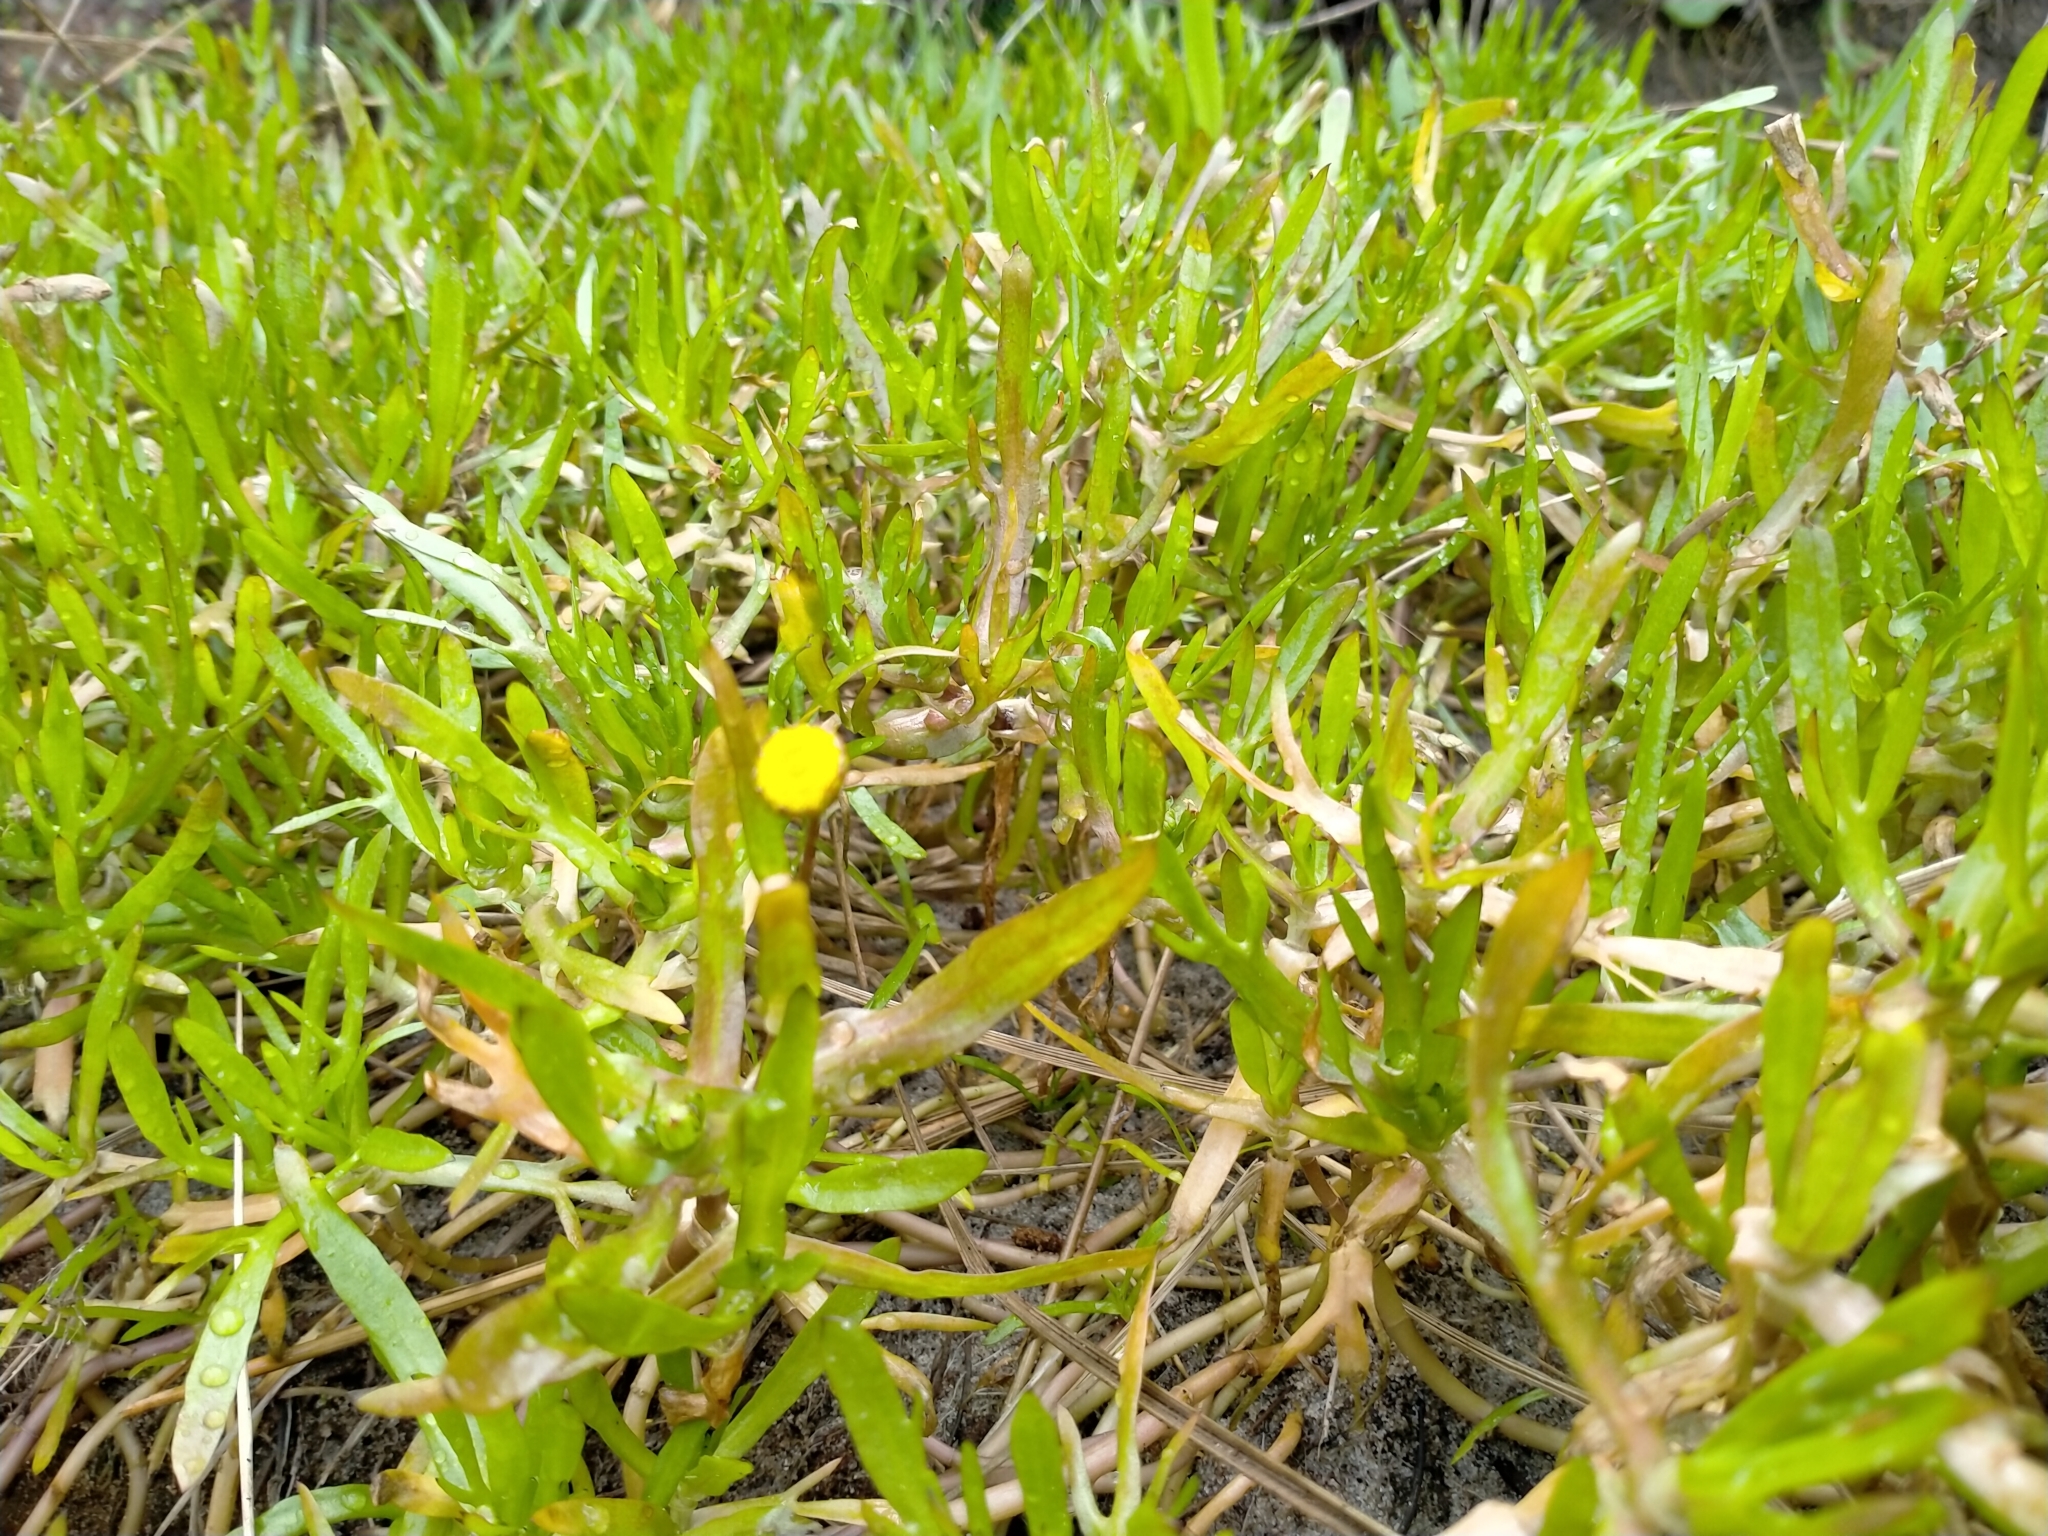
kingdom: Plantae
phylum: Tracheophyta
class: Magnoliopsida
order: Asterales
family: Asteraceae
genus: Cotula
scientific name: Cotula coronopifolia
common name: Buttonweed
